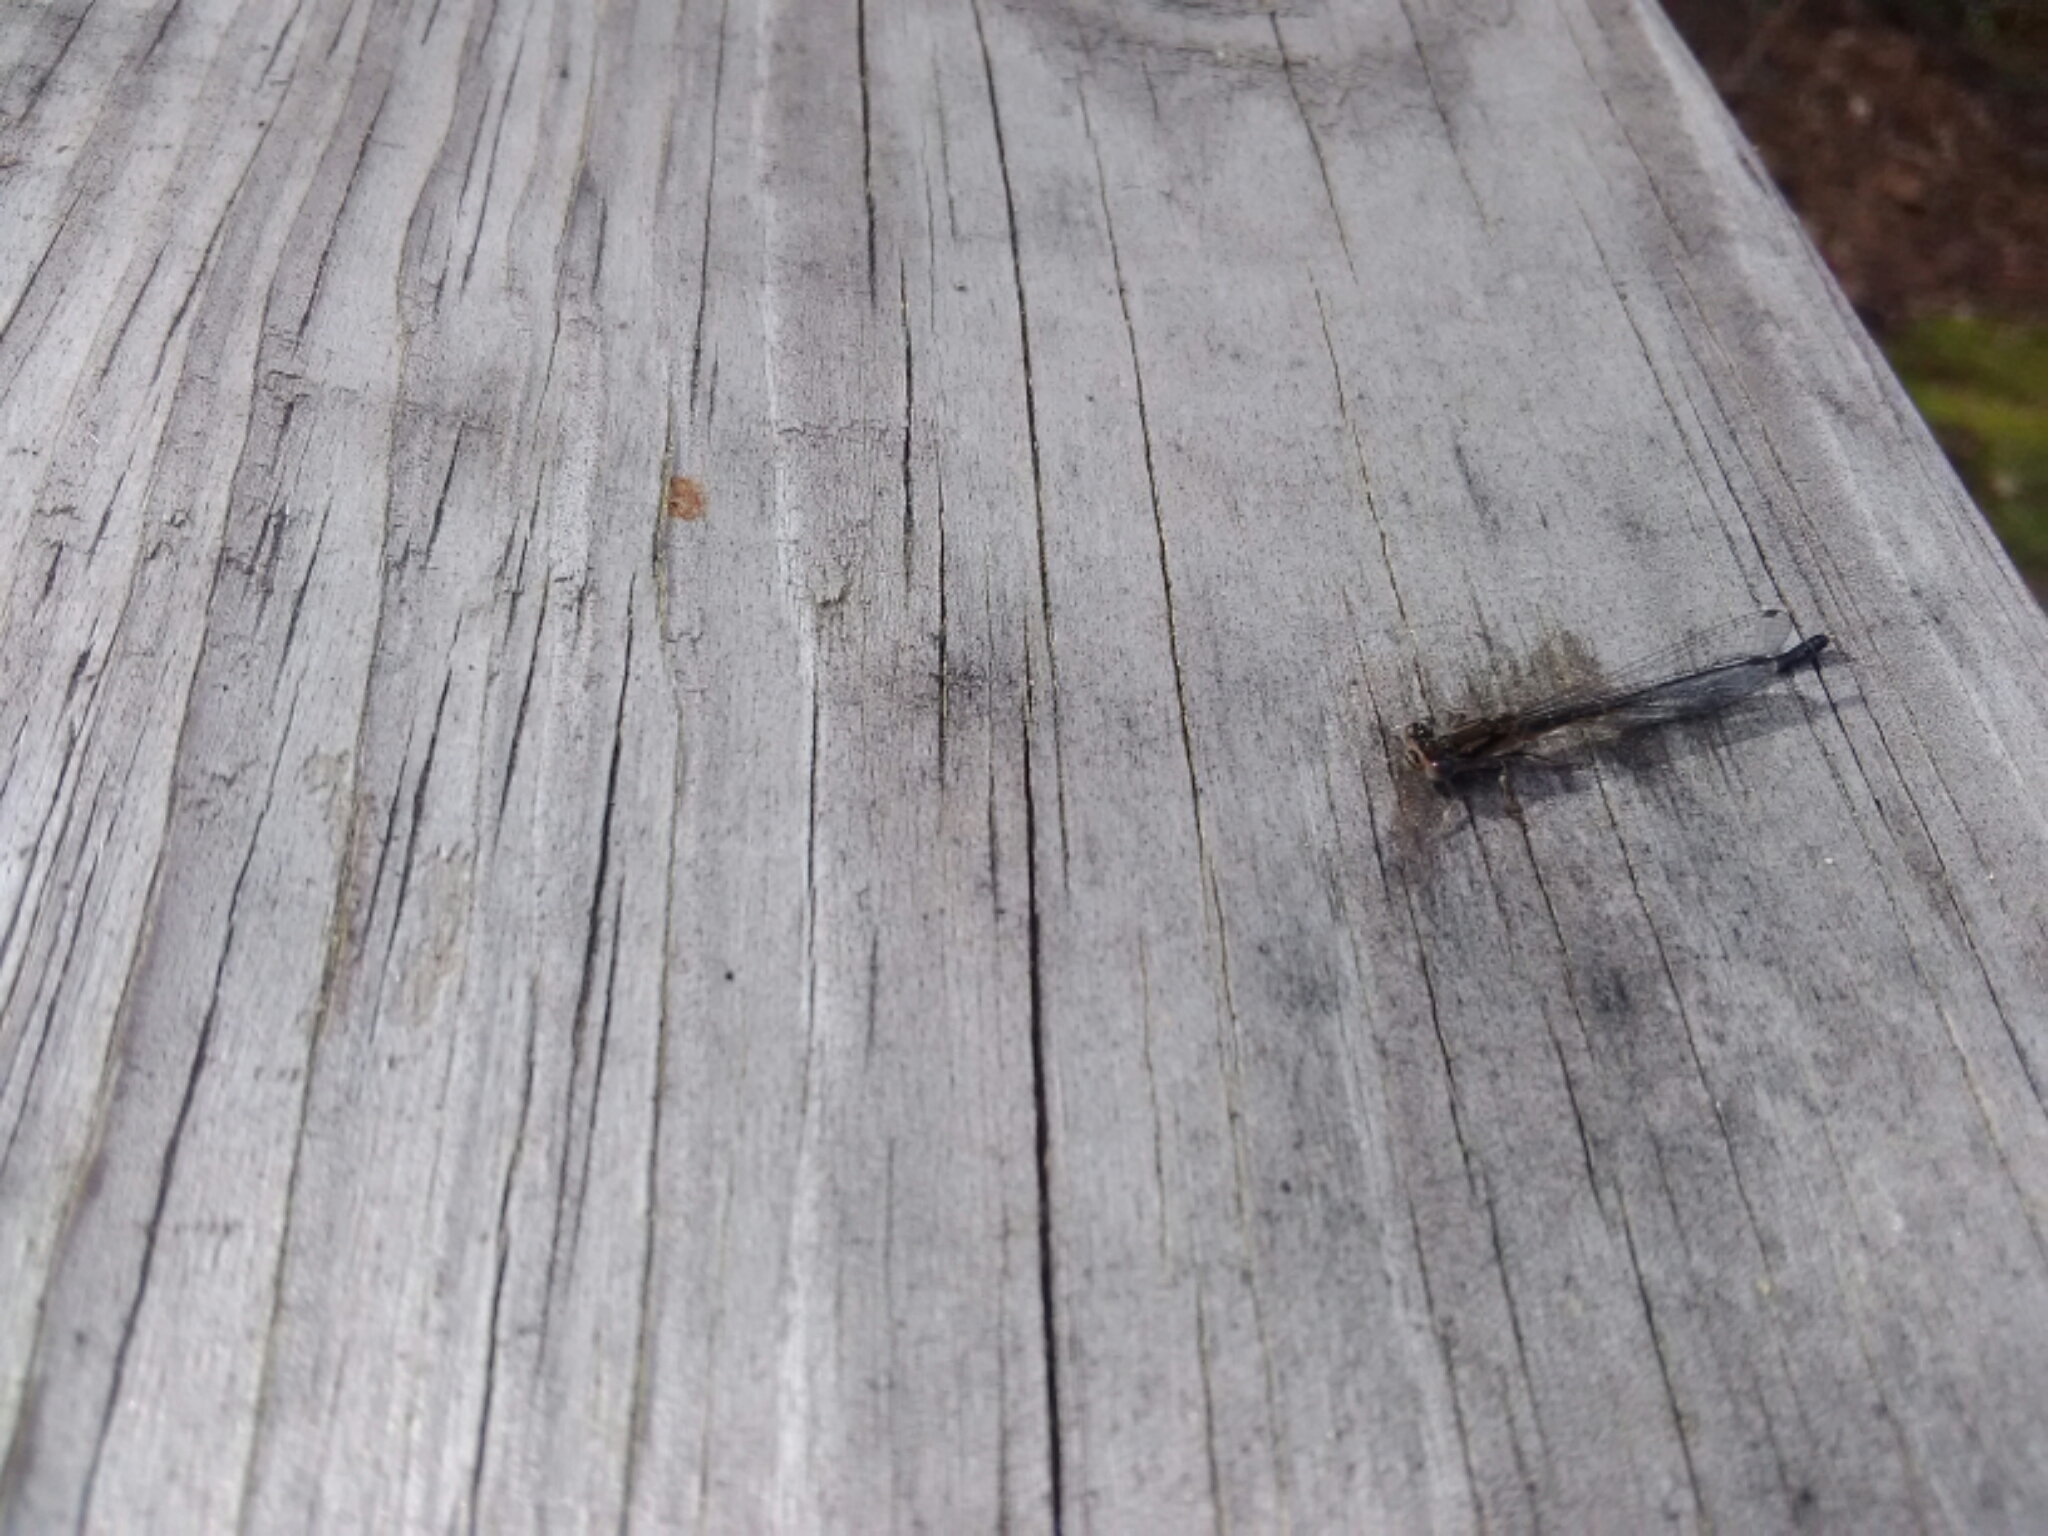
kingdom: Animalia
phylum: Arthropoda
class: Insecta
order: Odonata
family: Coenagrionidae
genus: Ischnura
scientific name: Ischnura posita
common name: Fragile forktail
